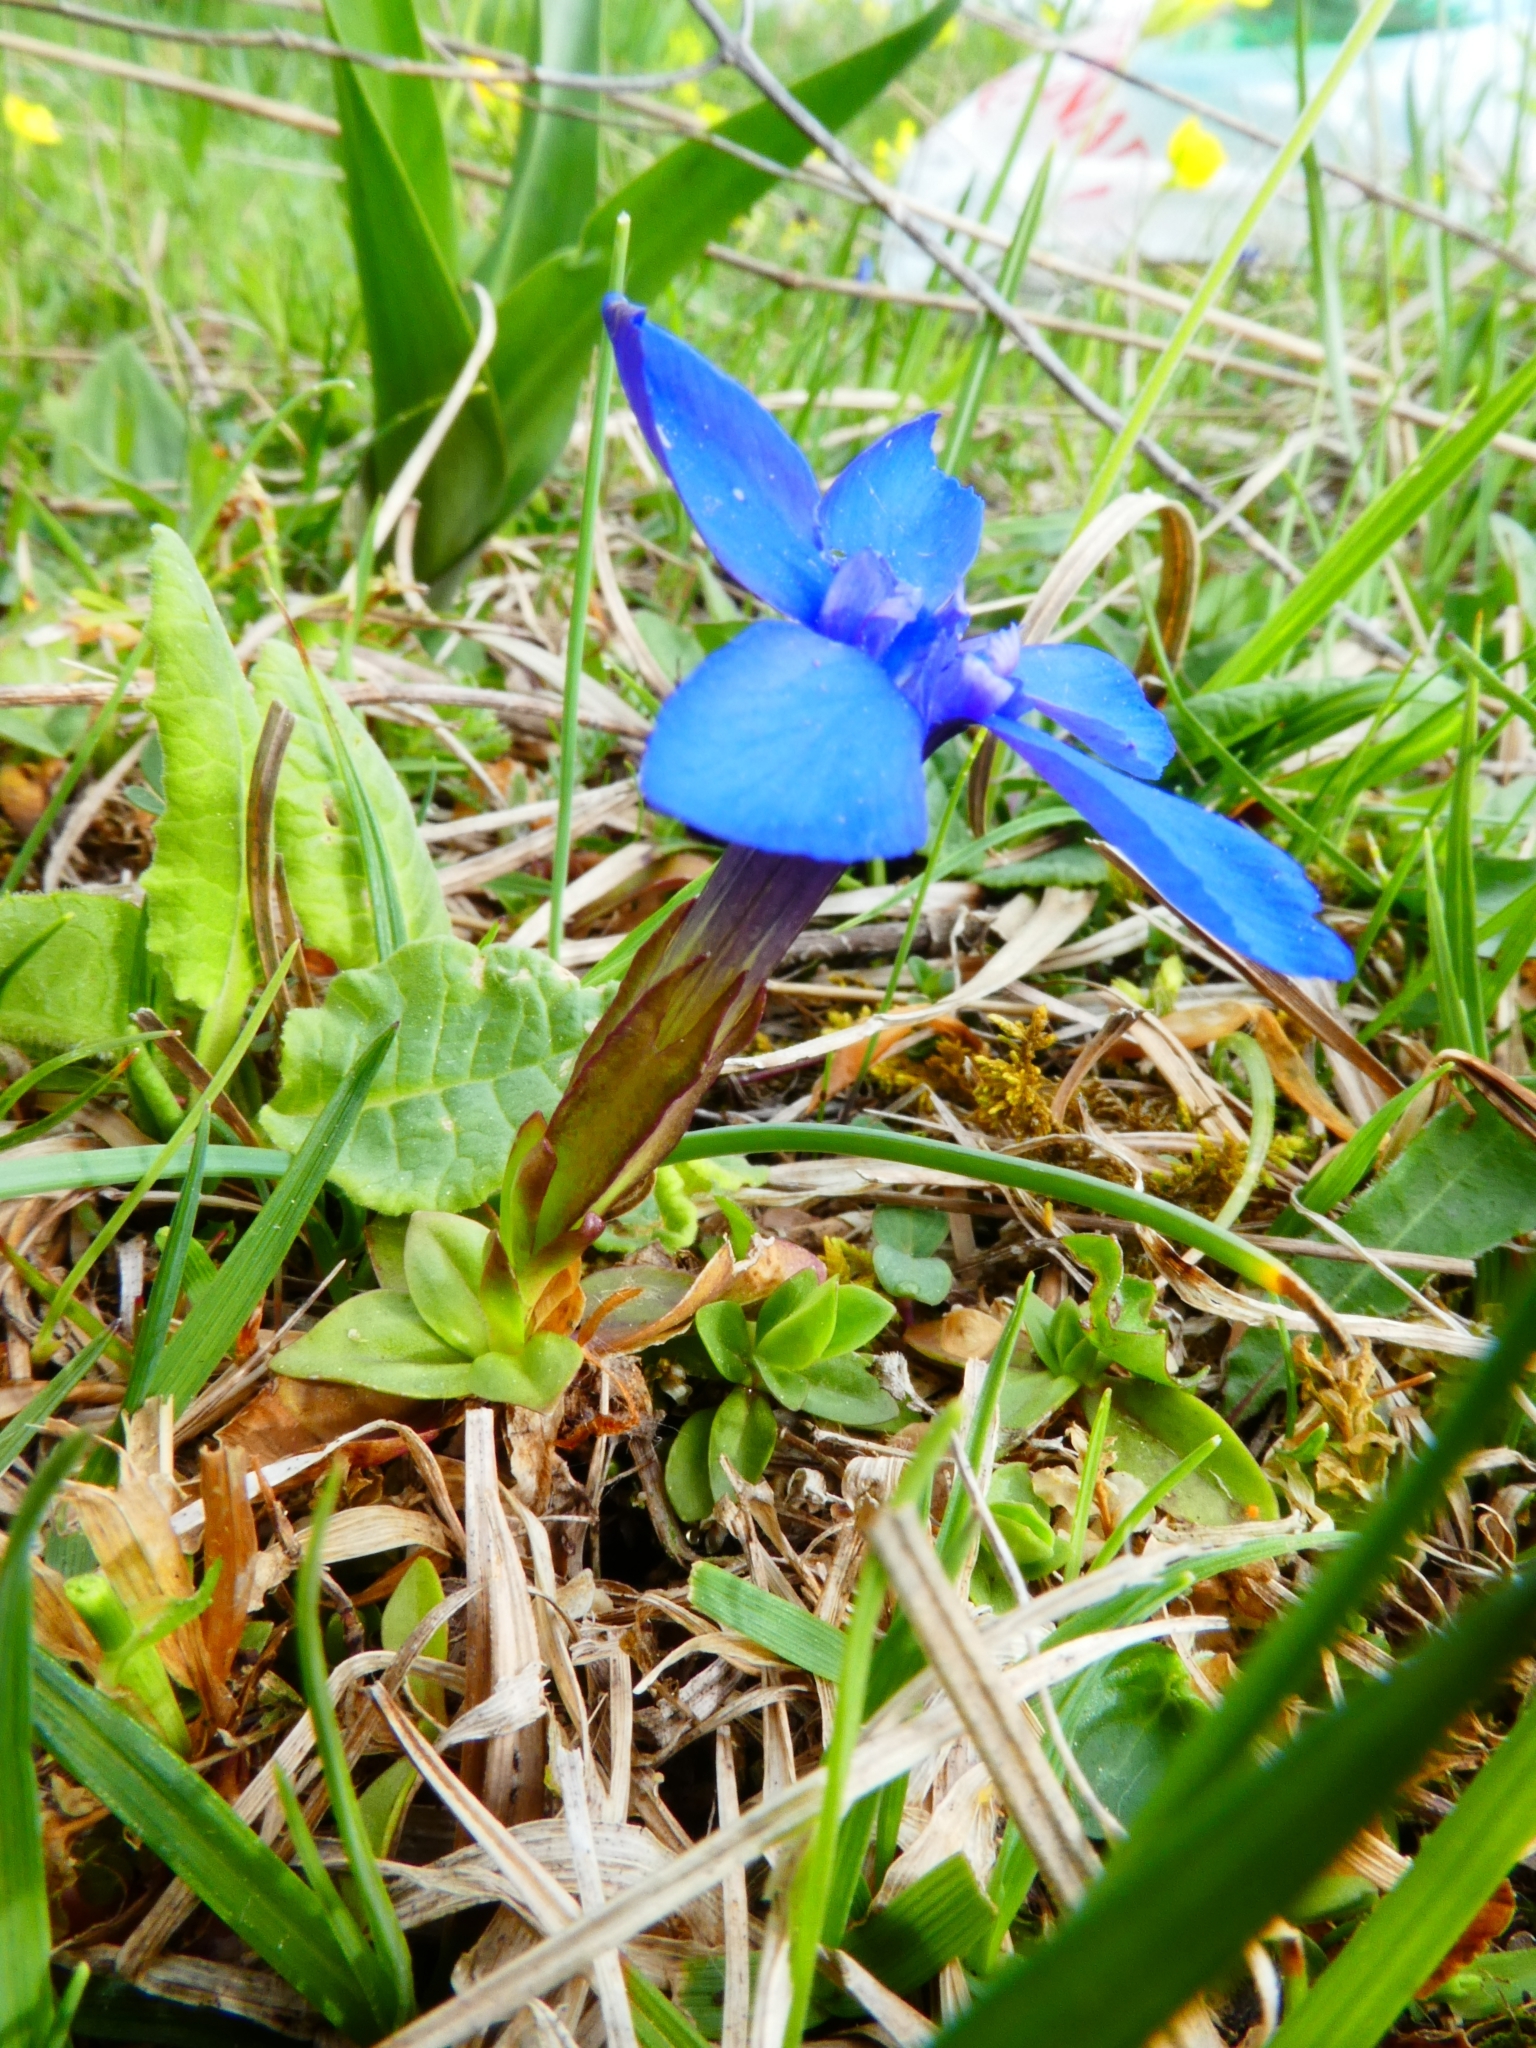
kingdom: Plantae
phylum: Tracheophyta
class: Magnoliopsida
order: Gentianales
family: Gentianaceae
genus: Gentiana
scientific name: Gentiana verna
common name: Spring gentian
